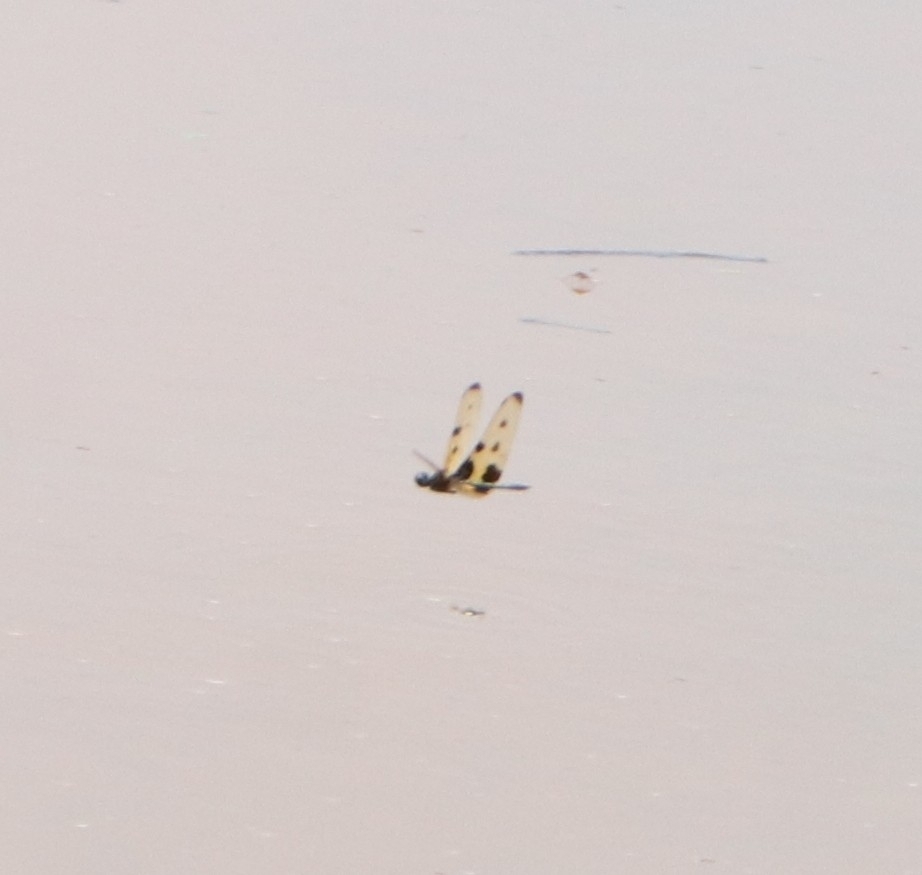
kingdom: Animalia
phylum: Arthropoda
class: Insecta
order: Odonata
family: Libellulidae
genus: Rhyothemis
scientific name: Rhyothemis variegata
